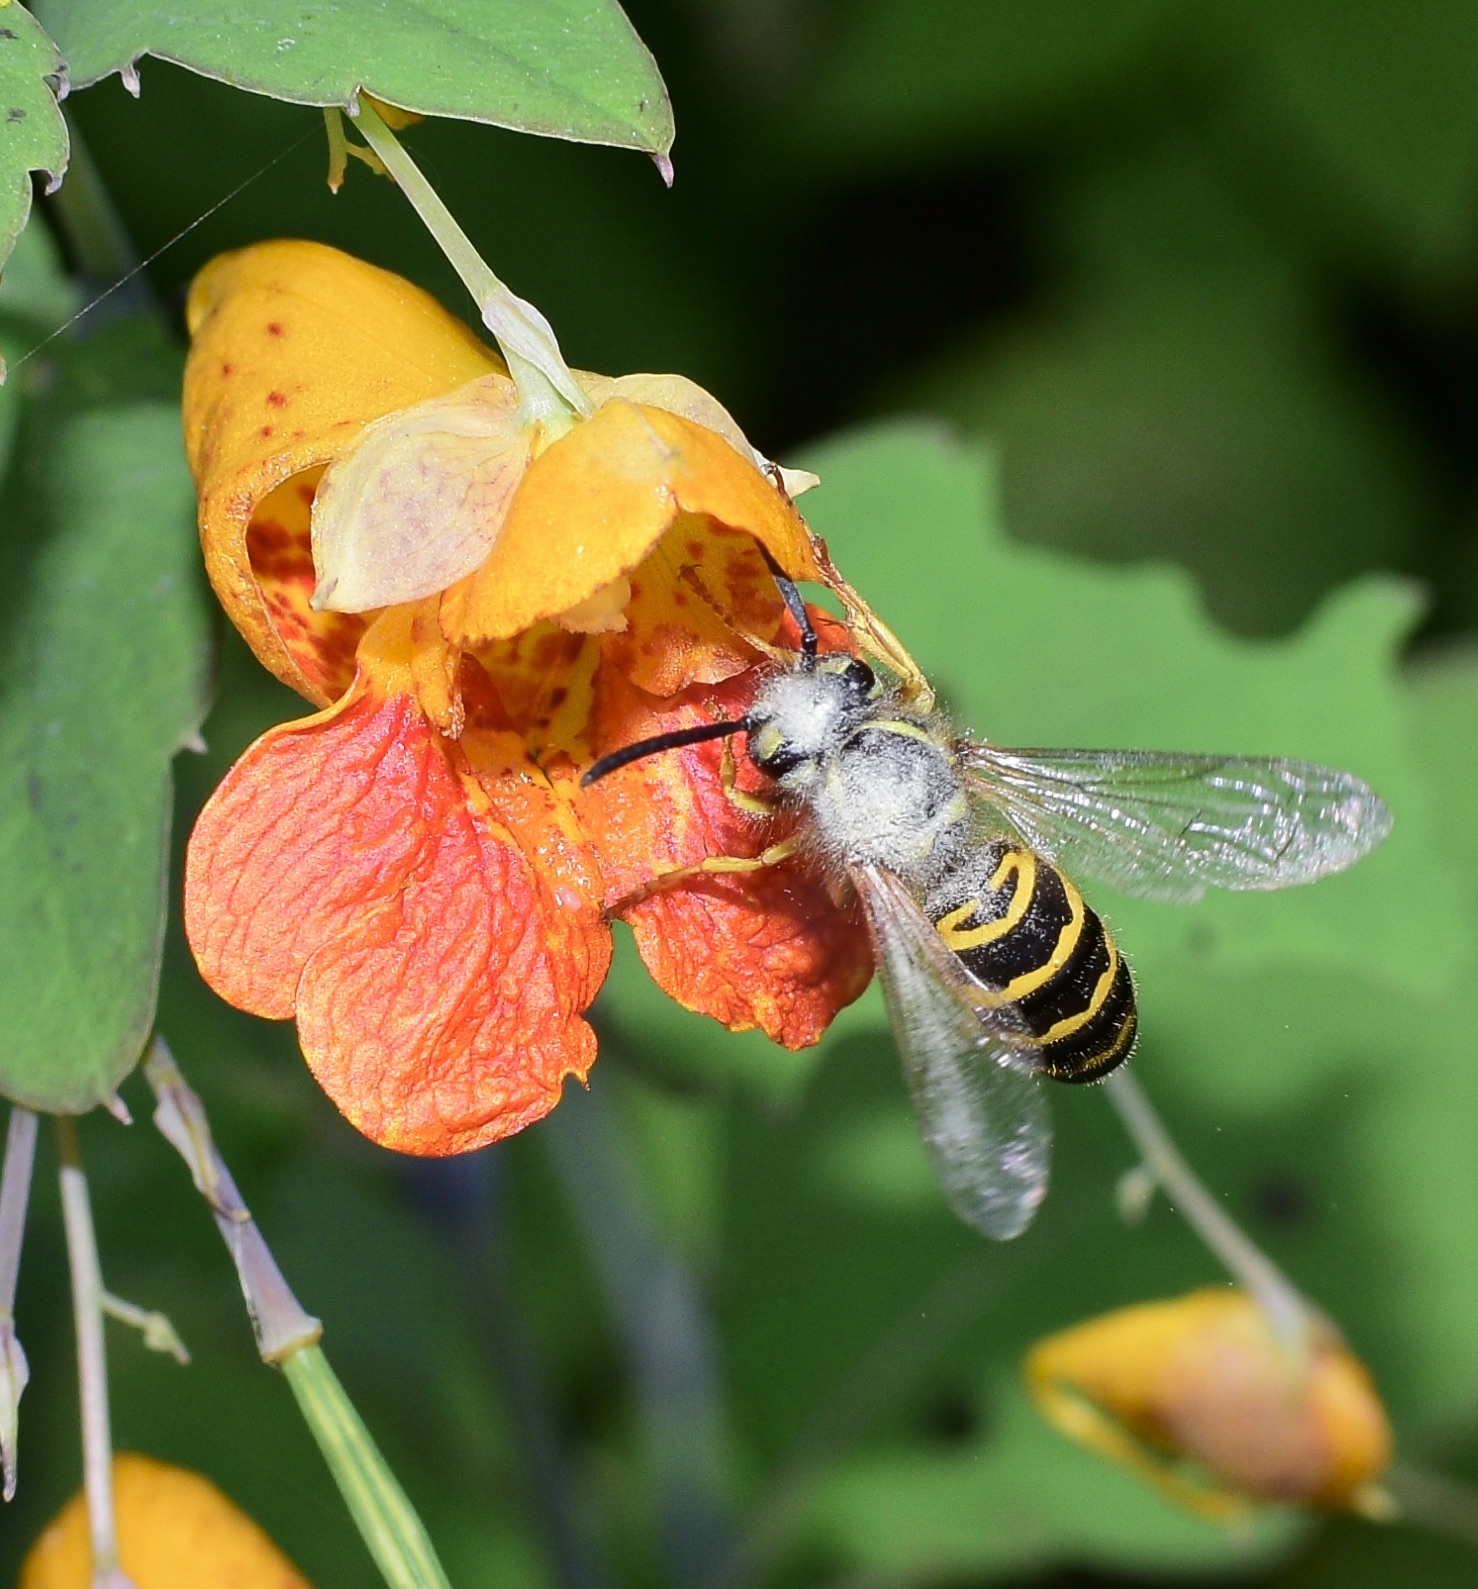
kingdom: Animalia
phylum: Arthropoda
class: Insecta
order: Hymenoptera
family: Vespidae
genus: Vespula
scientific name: Vespula maculifrons
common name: Eastern yellowjacket
